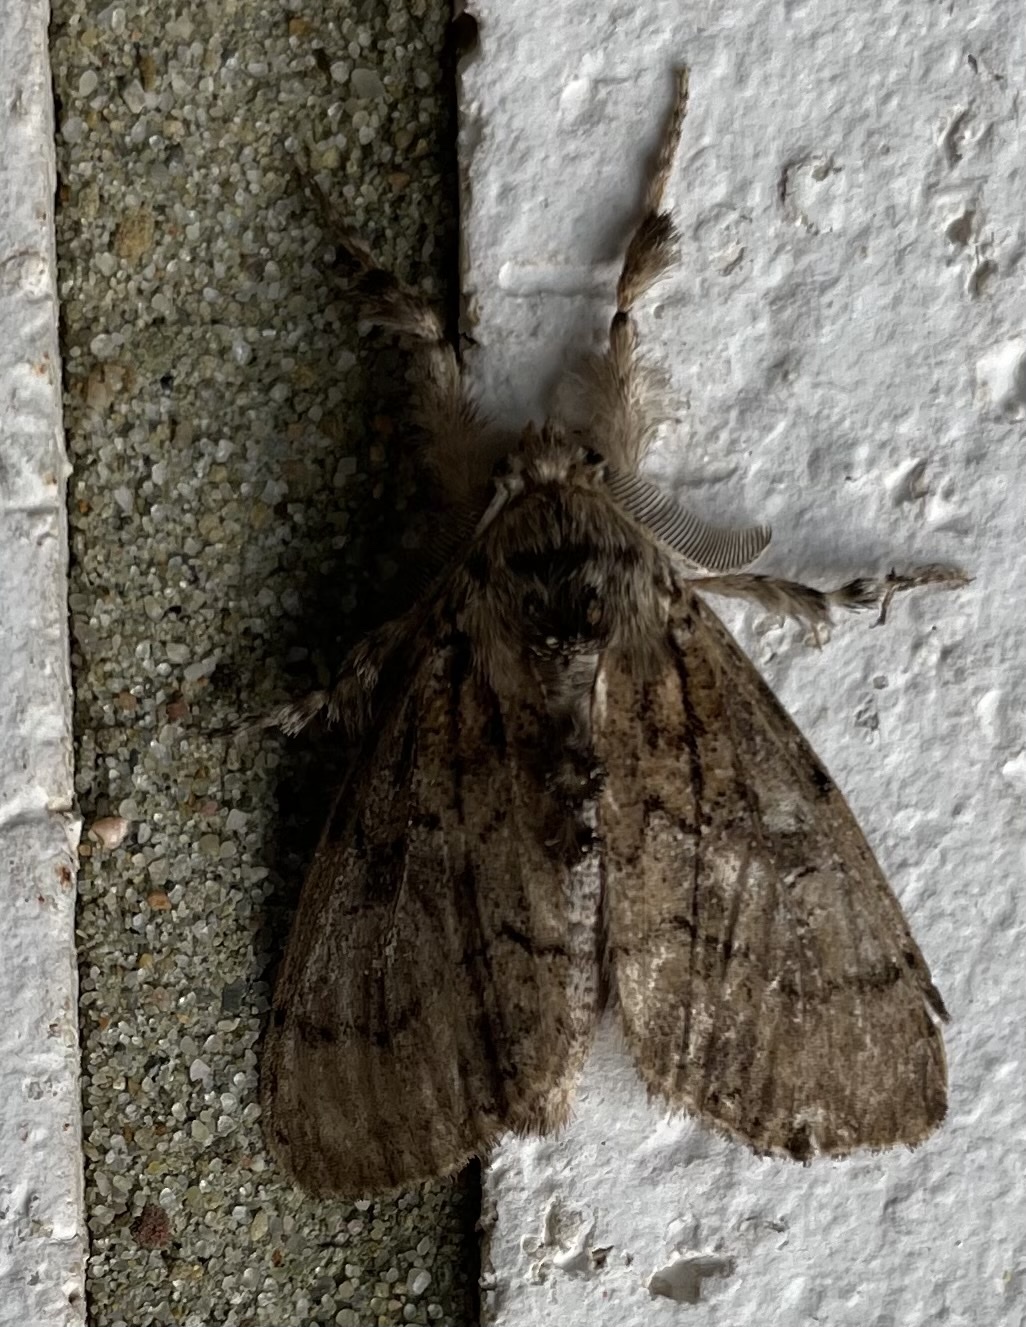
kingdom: Animalia
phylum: Arthropoda
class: Insecta
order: Lepidoptera
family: Erebidae
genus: Dasychira
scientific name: Dasychira obliquata
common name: Streaked tussock moth
